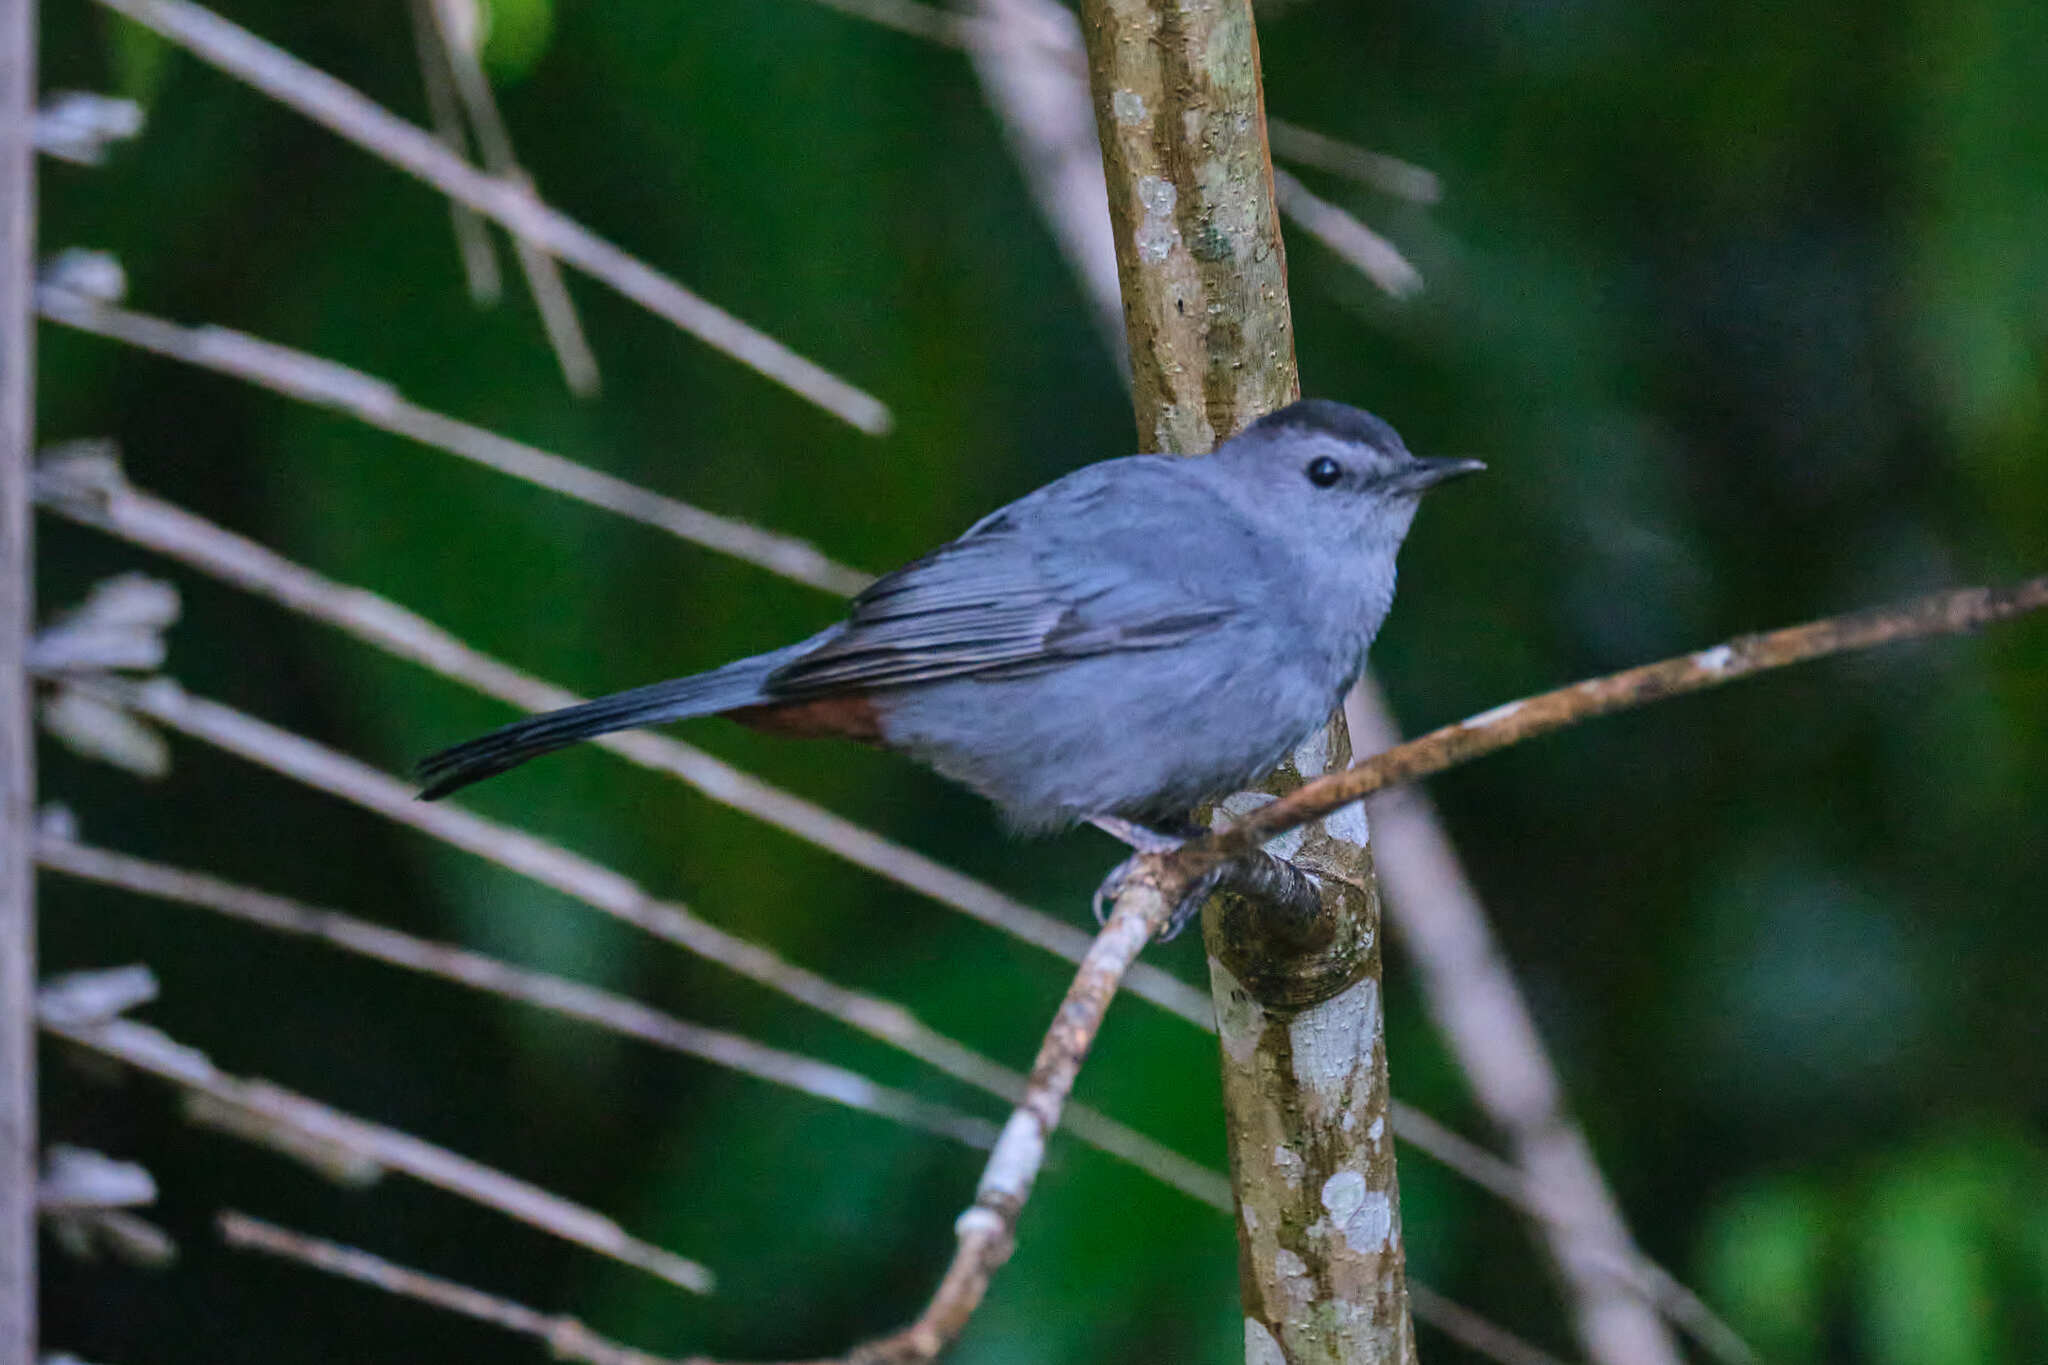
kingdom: Animalia
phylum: Chordata
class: Aves
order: Passeriformes
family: Mimidae
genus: Dumetella
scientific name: Dumetella carolinensis
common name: Gray catbird
